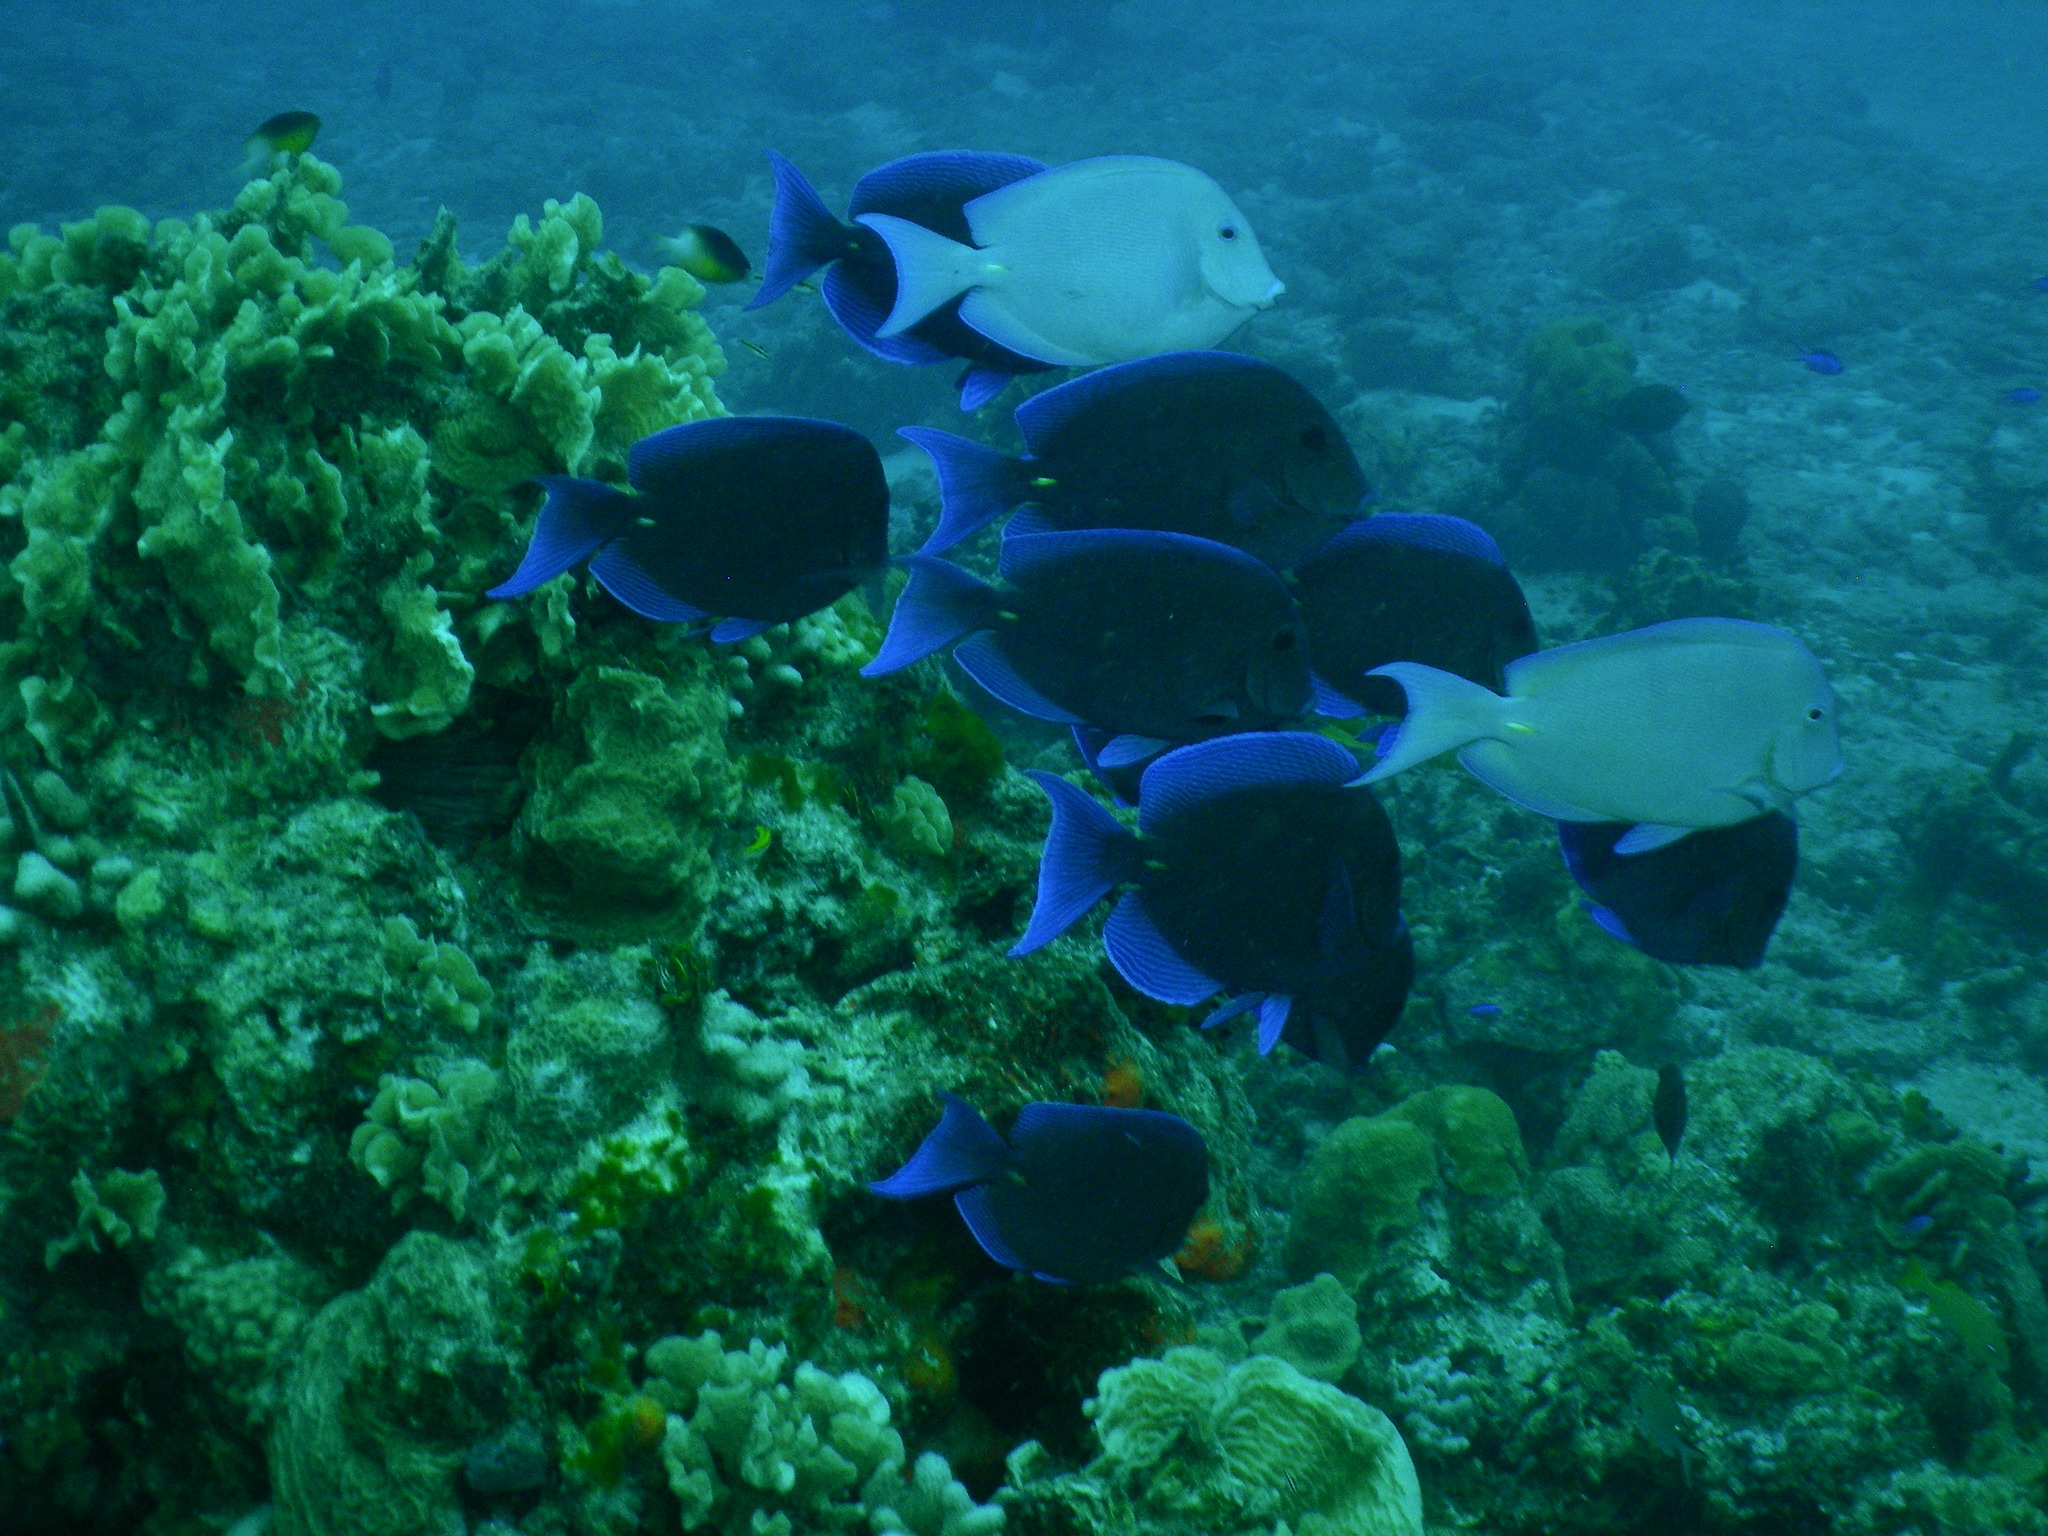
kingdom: Animalia
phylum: Chordata
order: Perciformes
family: Acanthuridae
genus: Acanthurus
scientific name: Acanthurus coeruleus
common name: Blue tang
